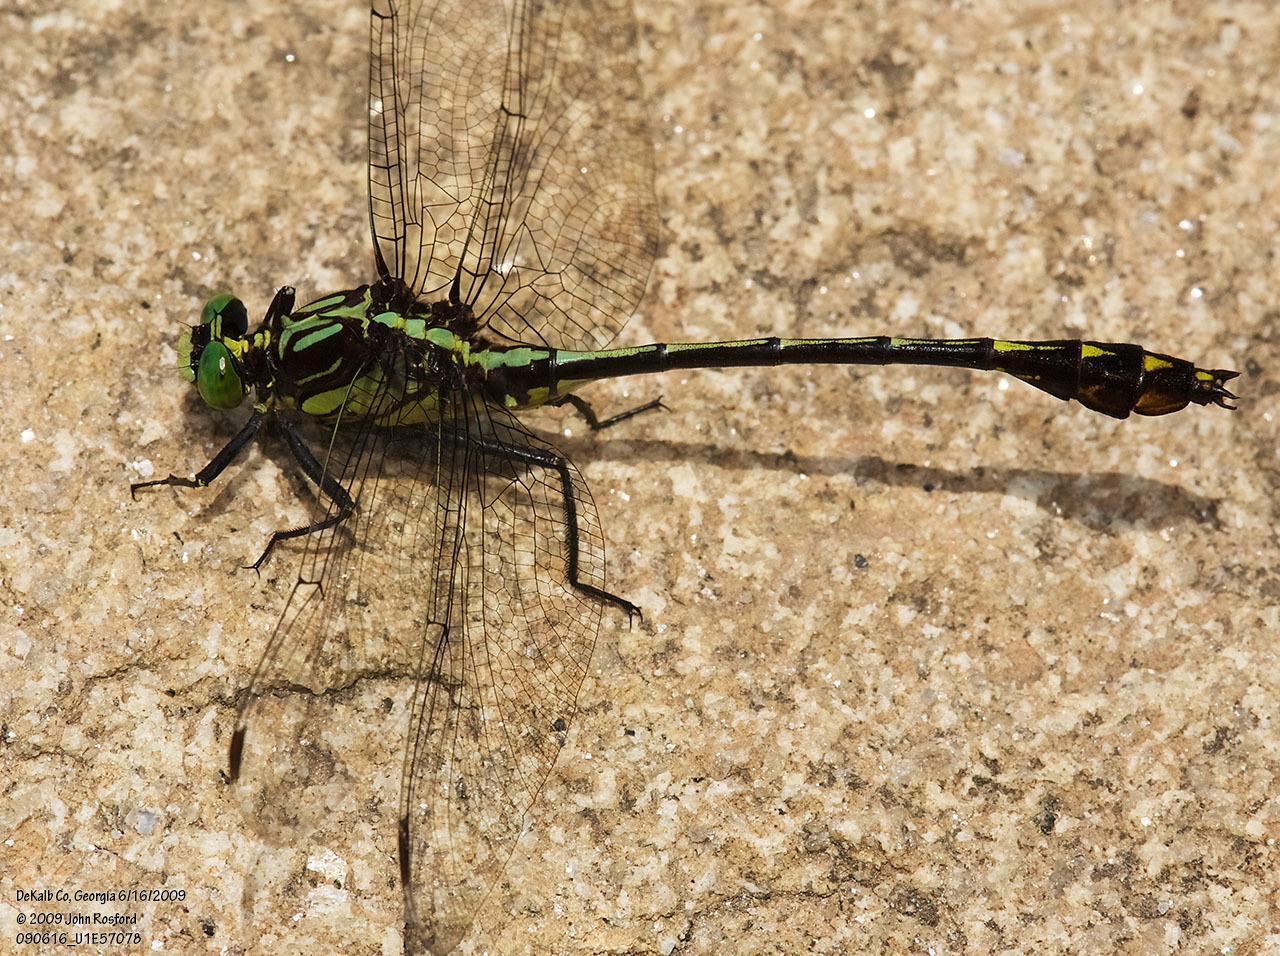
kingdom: Animalia
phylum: Arthropoda
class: Insecta
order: Odonata
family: Gomphidae
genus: Dromogomphus
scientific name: Dromogomphus spinosus
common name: Black-shouldered spinyleg
